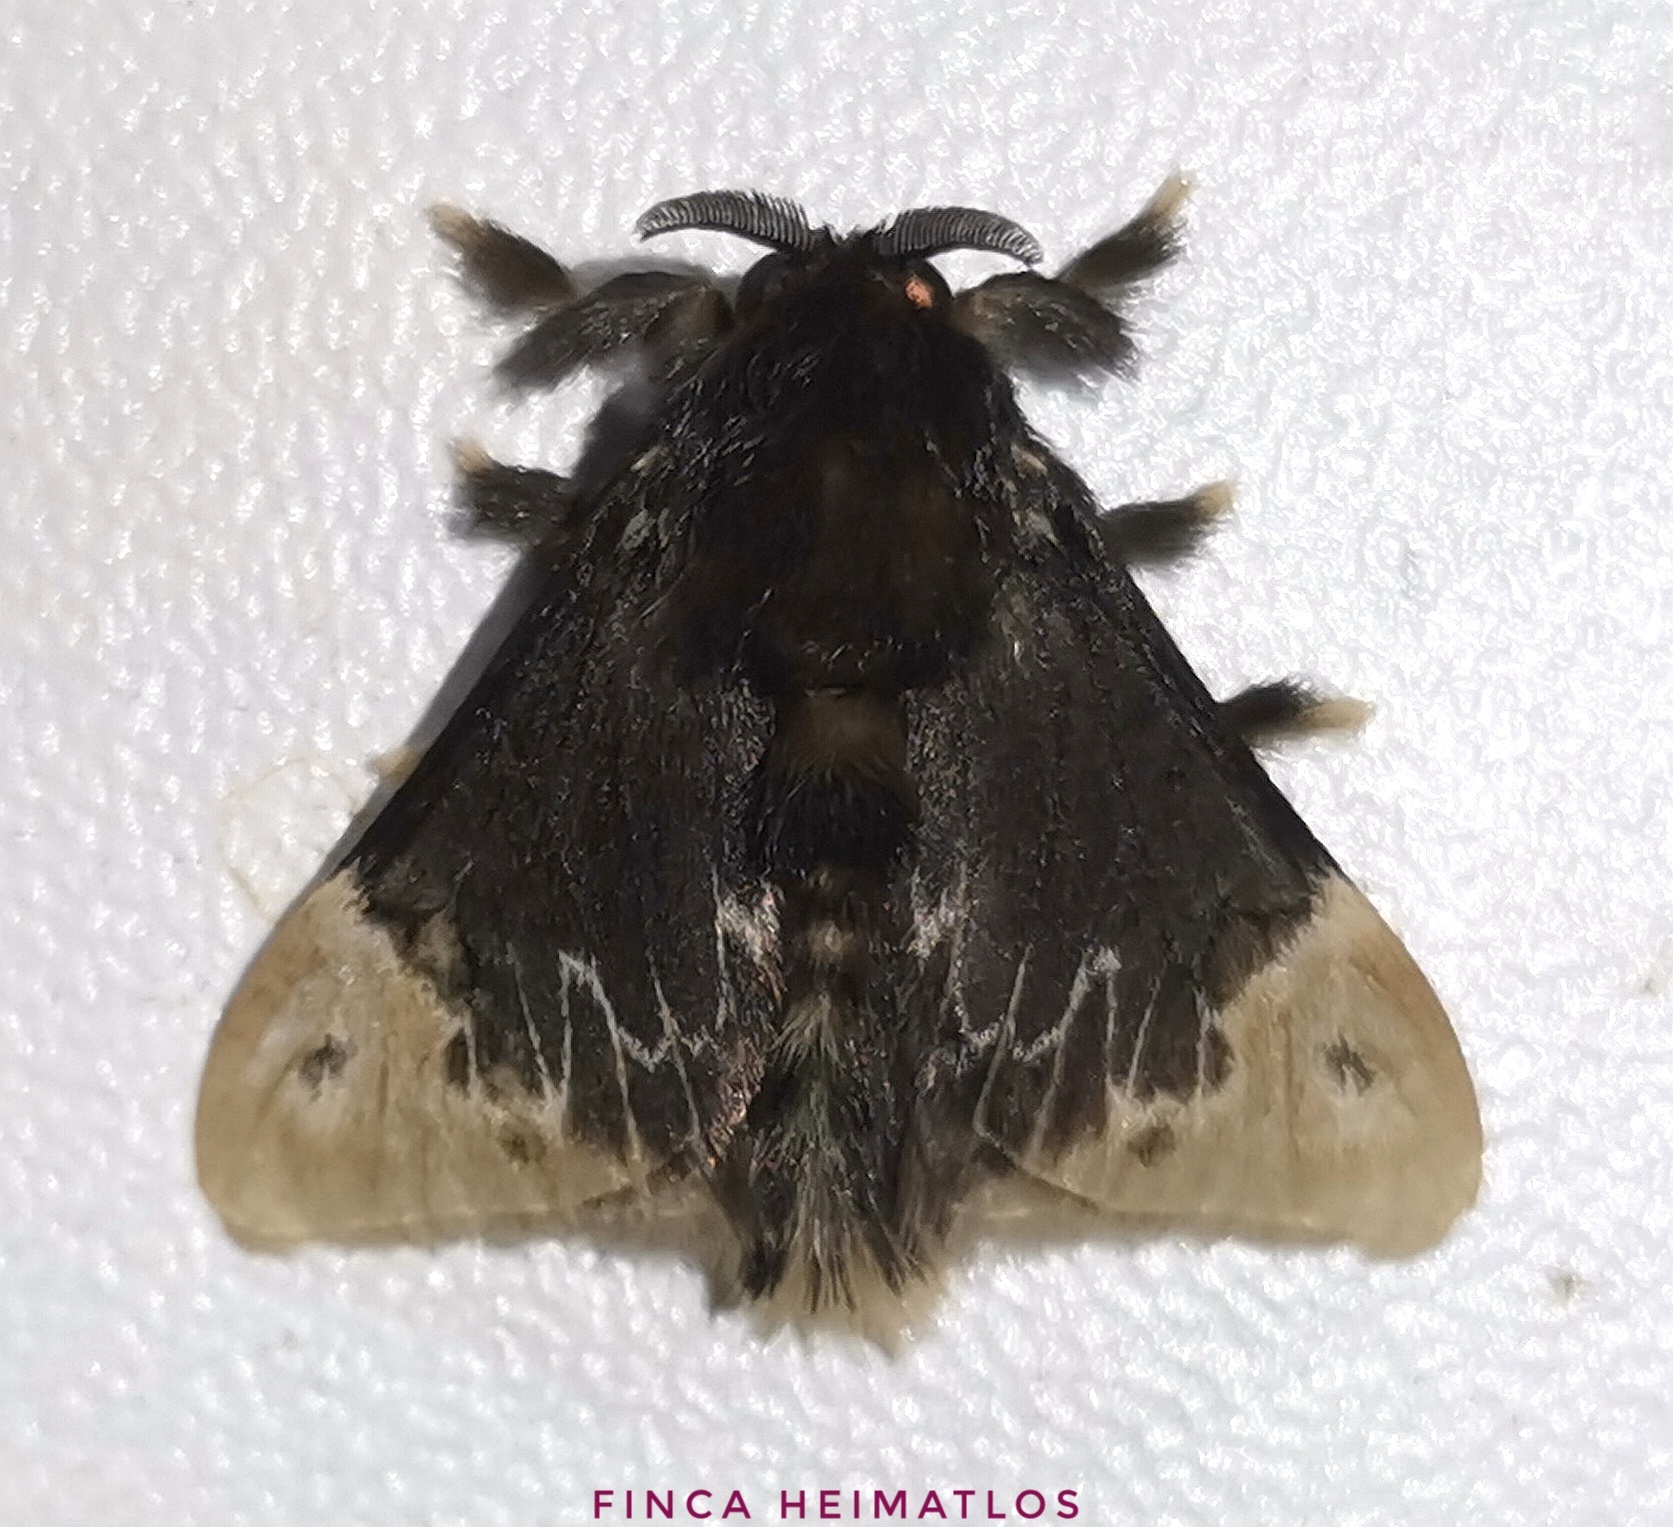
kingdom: Animalia
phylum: Arthropoda
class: Insecta
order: Lepidoptera
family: Megalopygidae
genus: Podalia
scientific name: Podalia amarga
